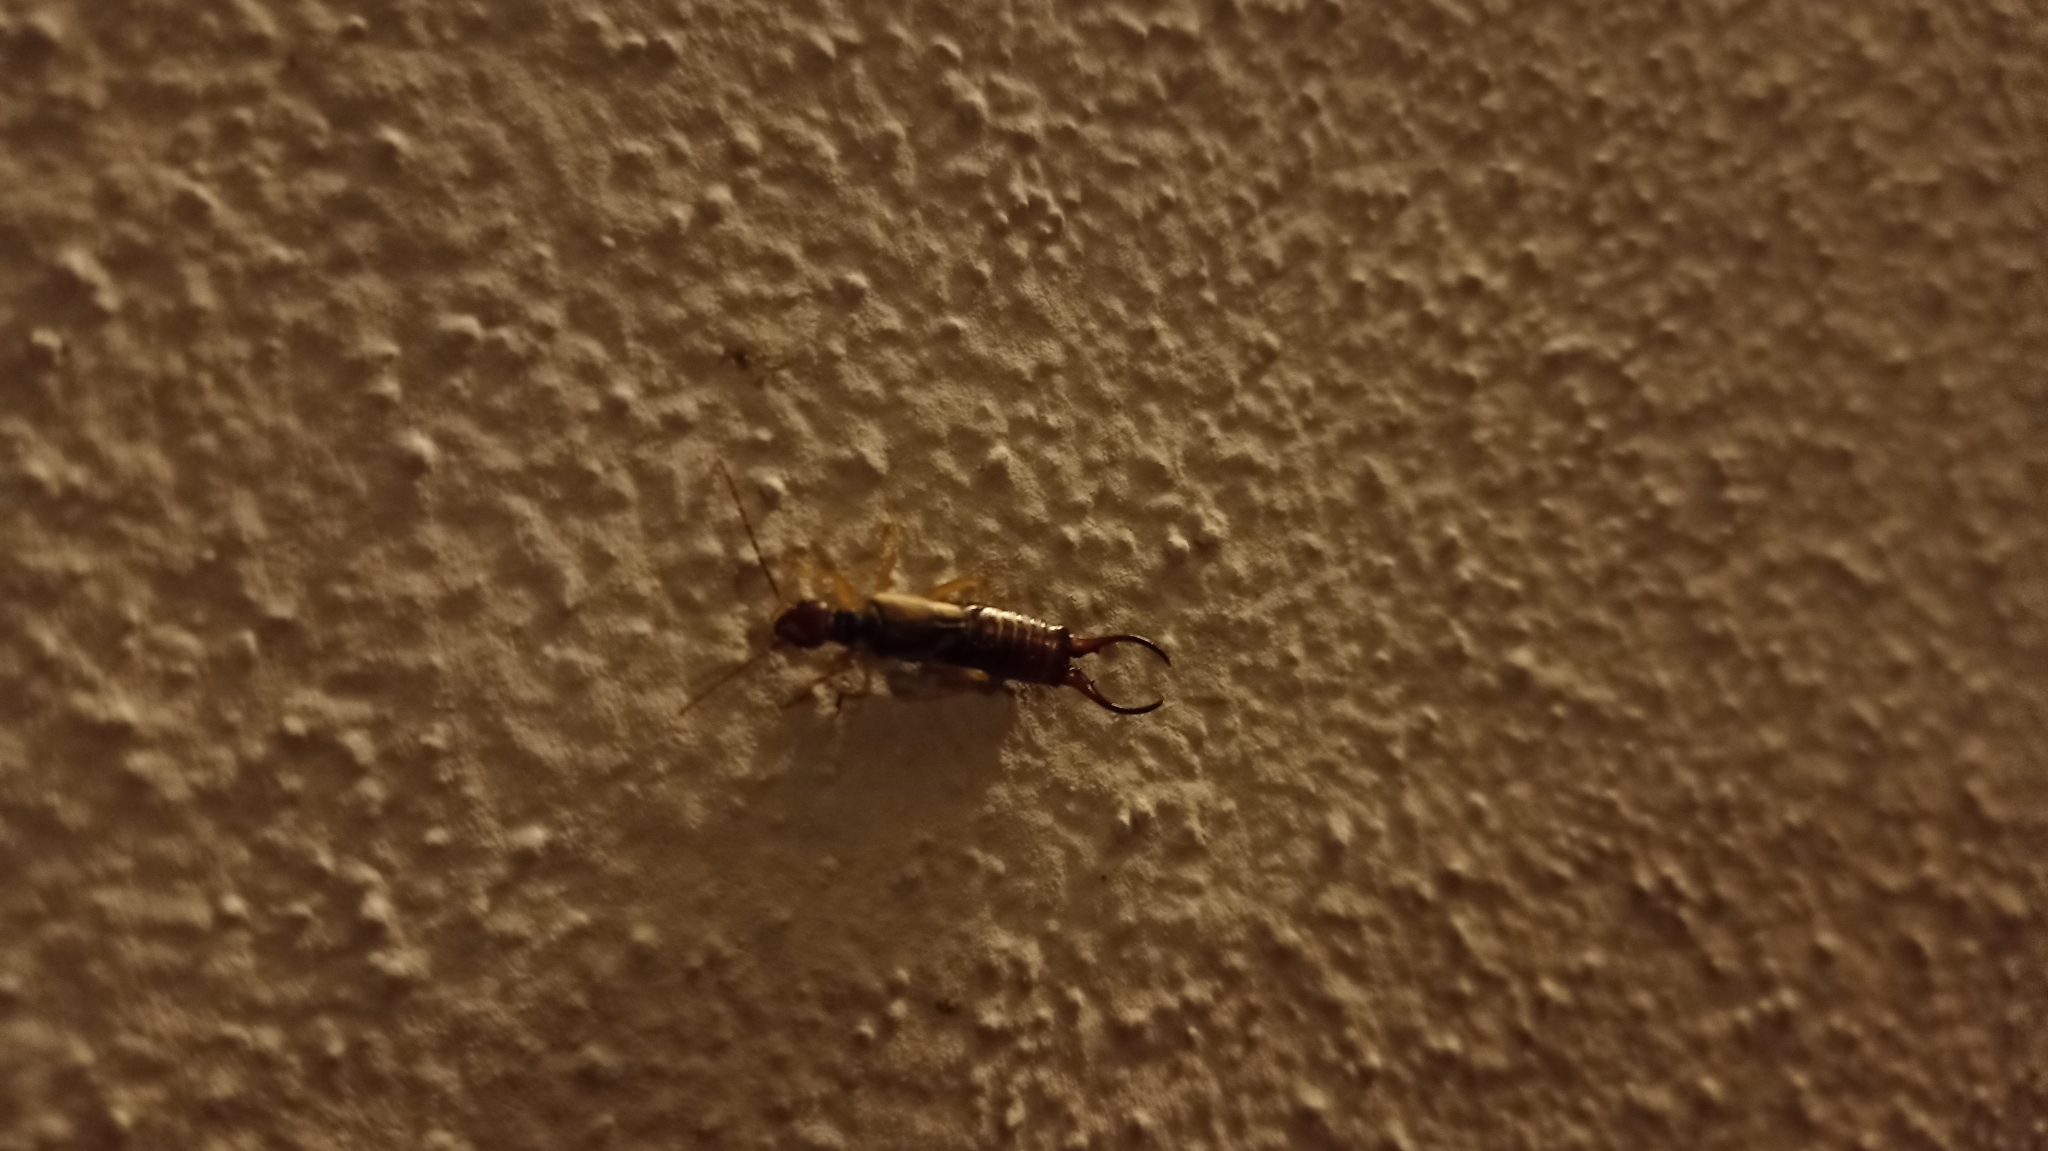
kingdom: Animalia
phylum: Arthropoda
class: Insecta
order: Dermaptera
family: Forficulidae
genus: Forficula
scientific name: Forficula
